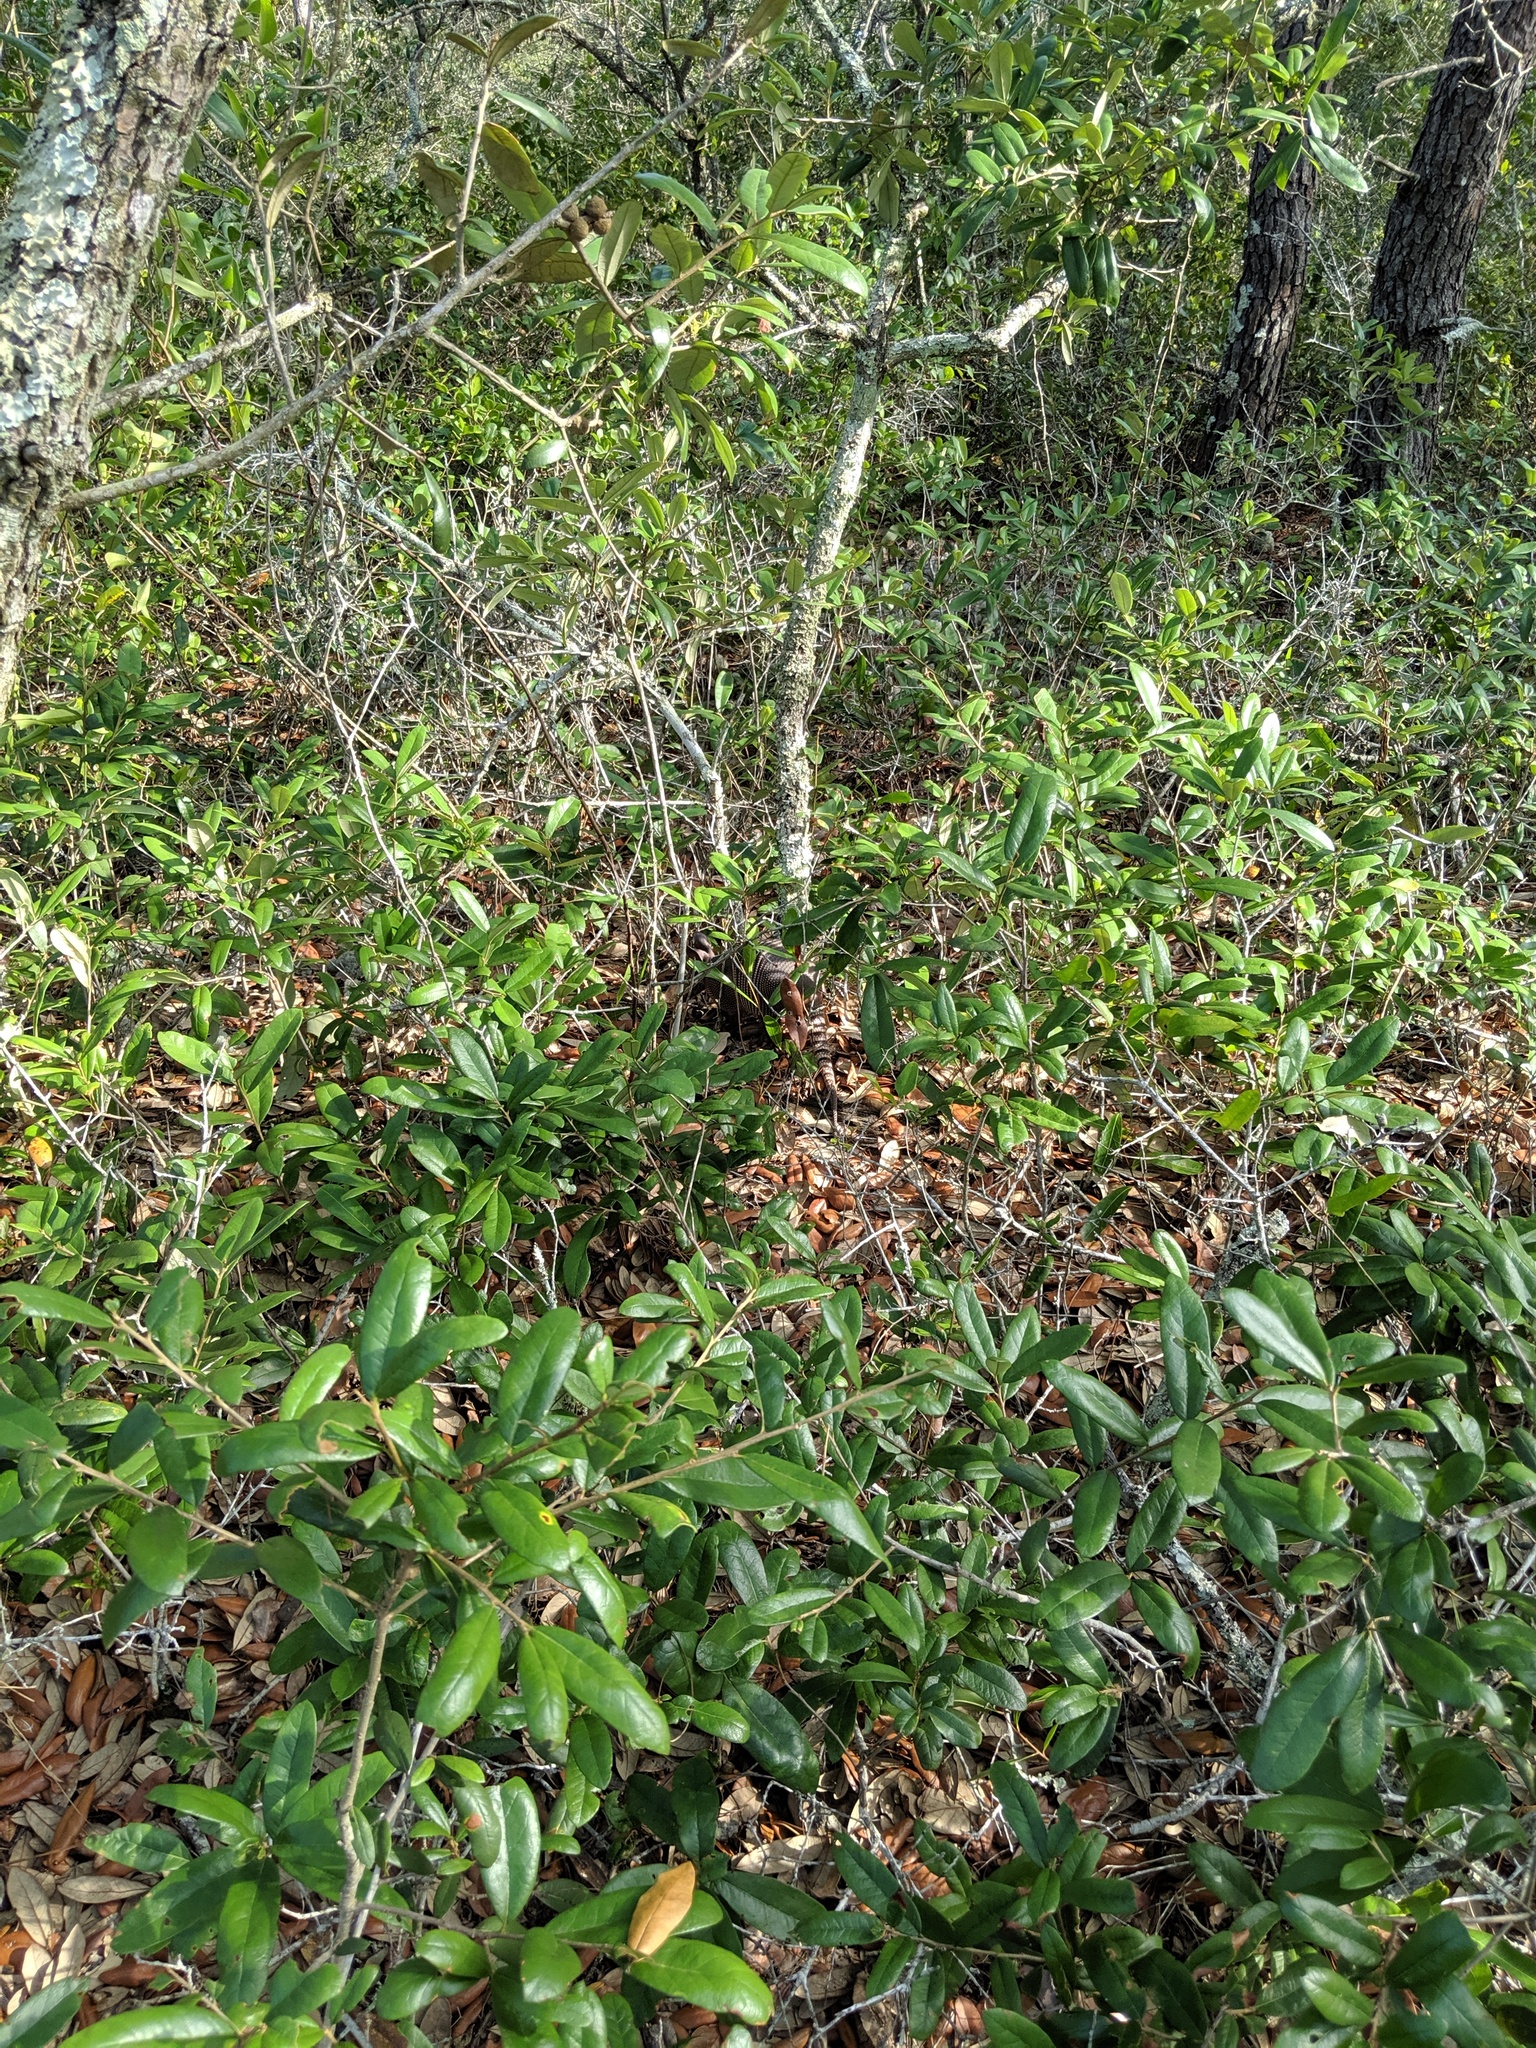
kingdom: Animalia
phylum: Chordata
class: Mammalia
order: Cingulata
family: Dasypodidae
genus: Dasypus
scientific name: Dasypus novemcinctus
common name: Nine-banded armadillo
